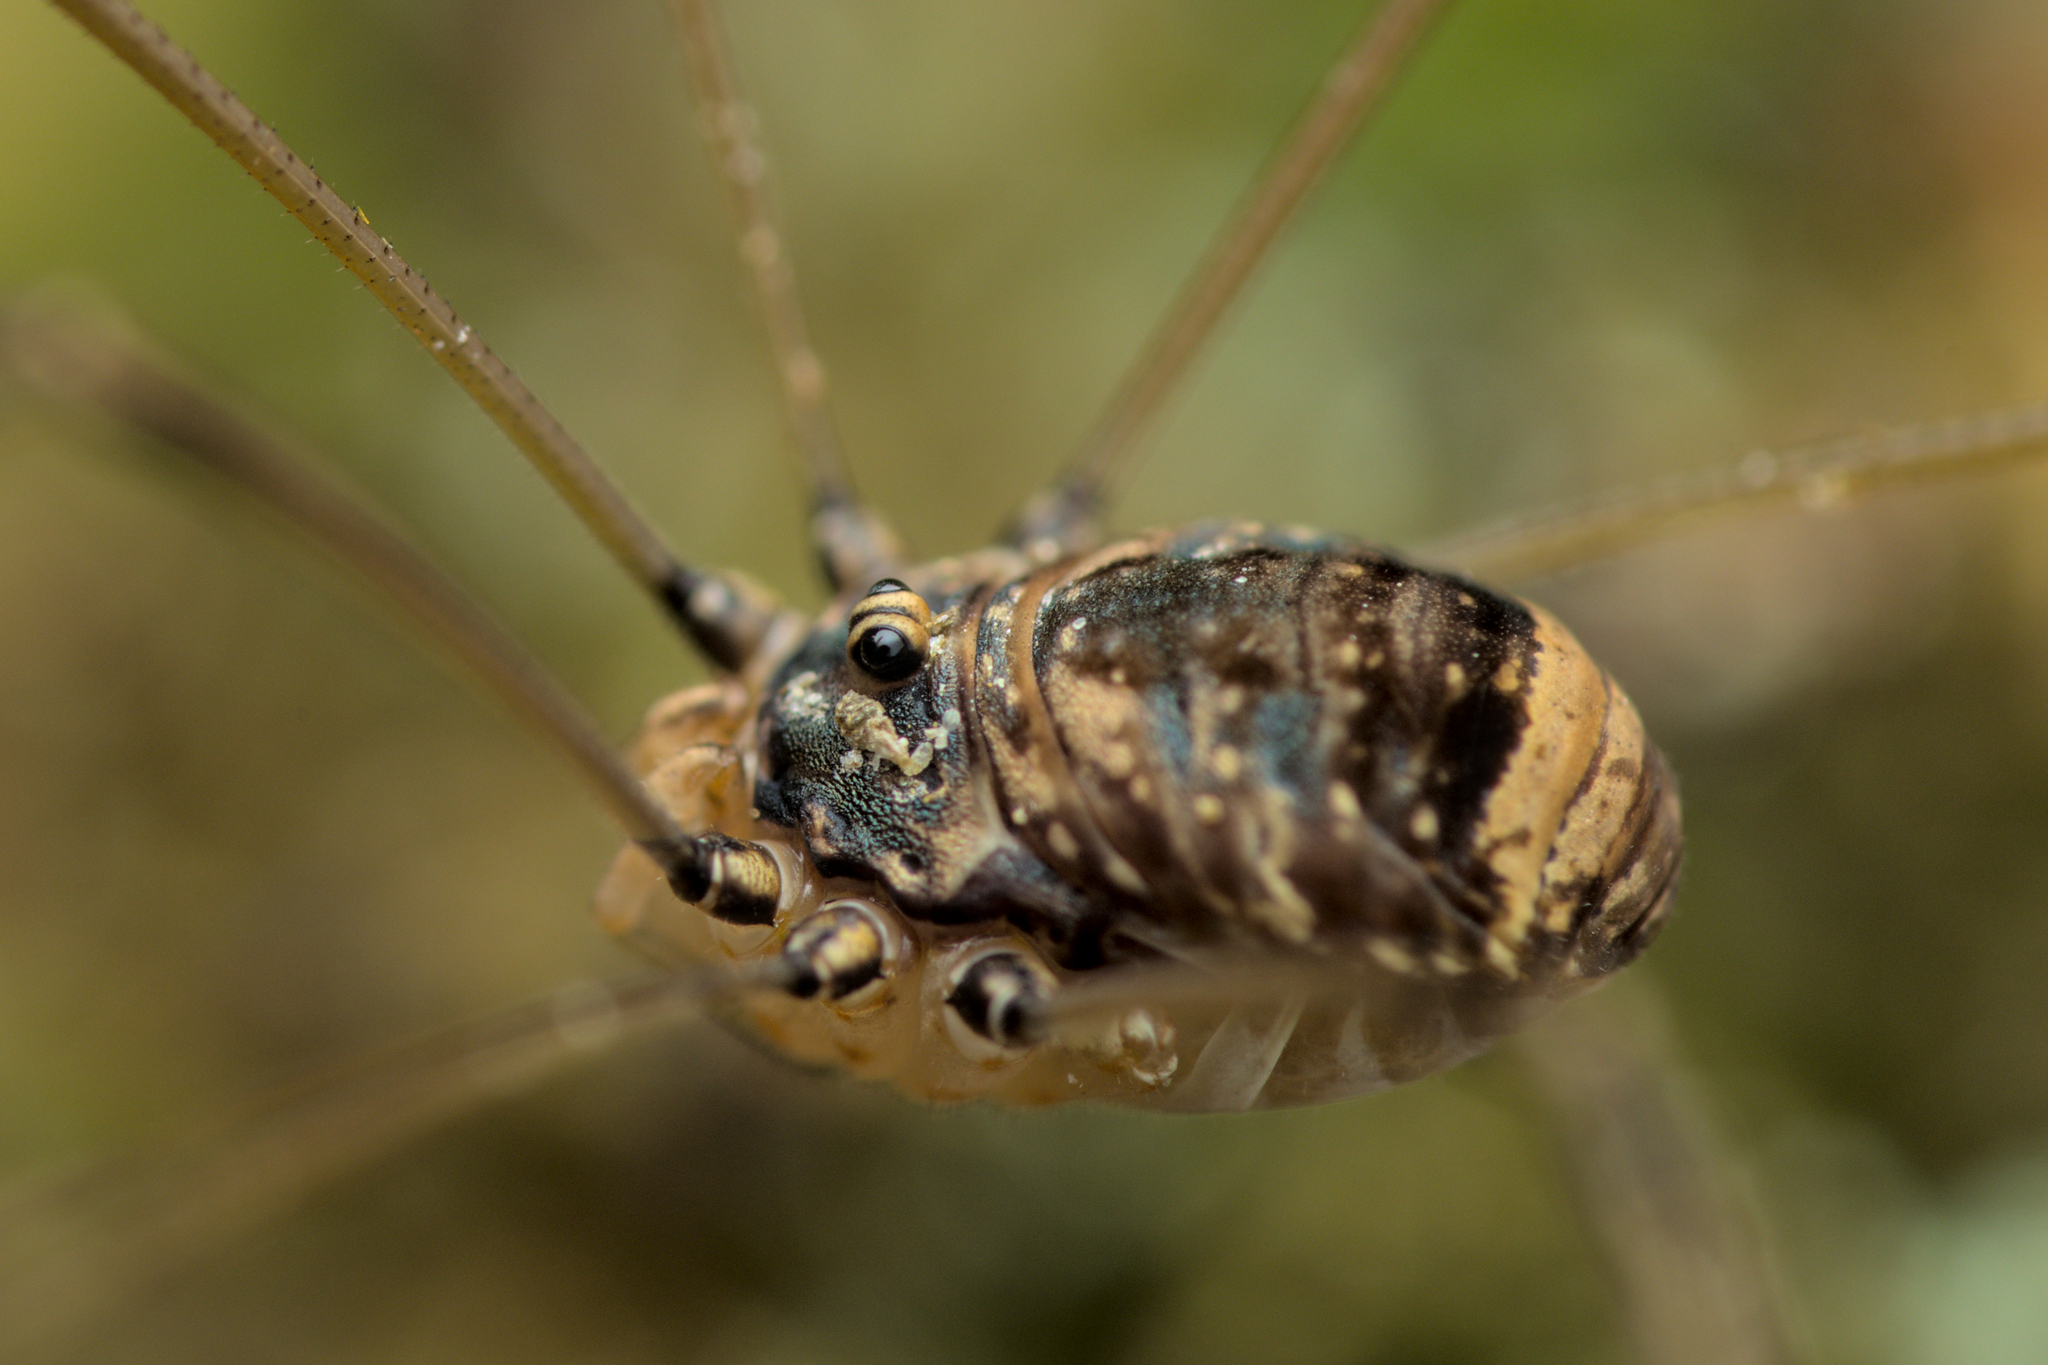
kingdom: Animalia
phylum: Arthropoda
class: Arachnida
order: Opiliones
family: Sclerosomatidae
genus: Leiobunum
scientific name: Leiobunum blackwalli
